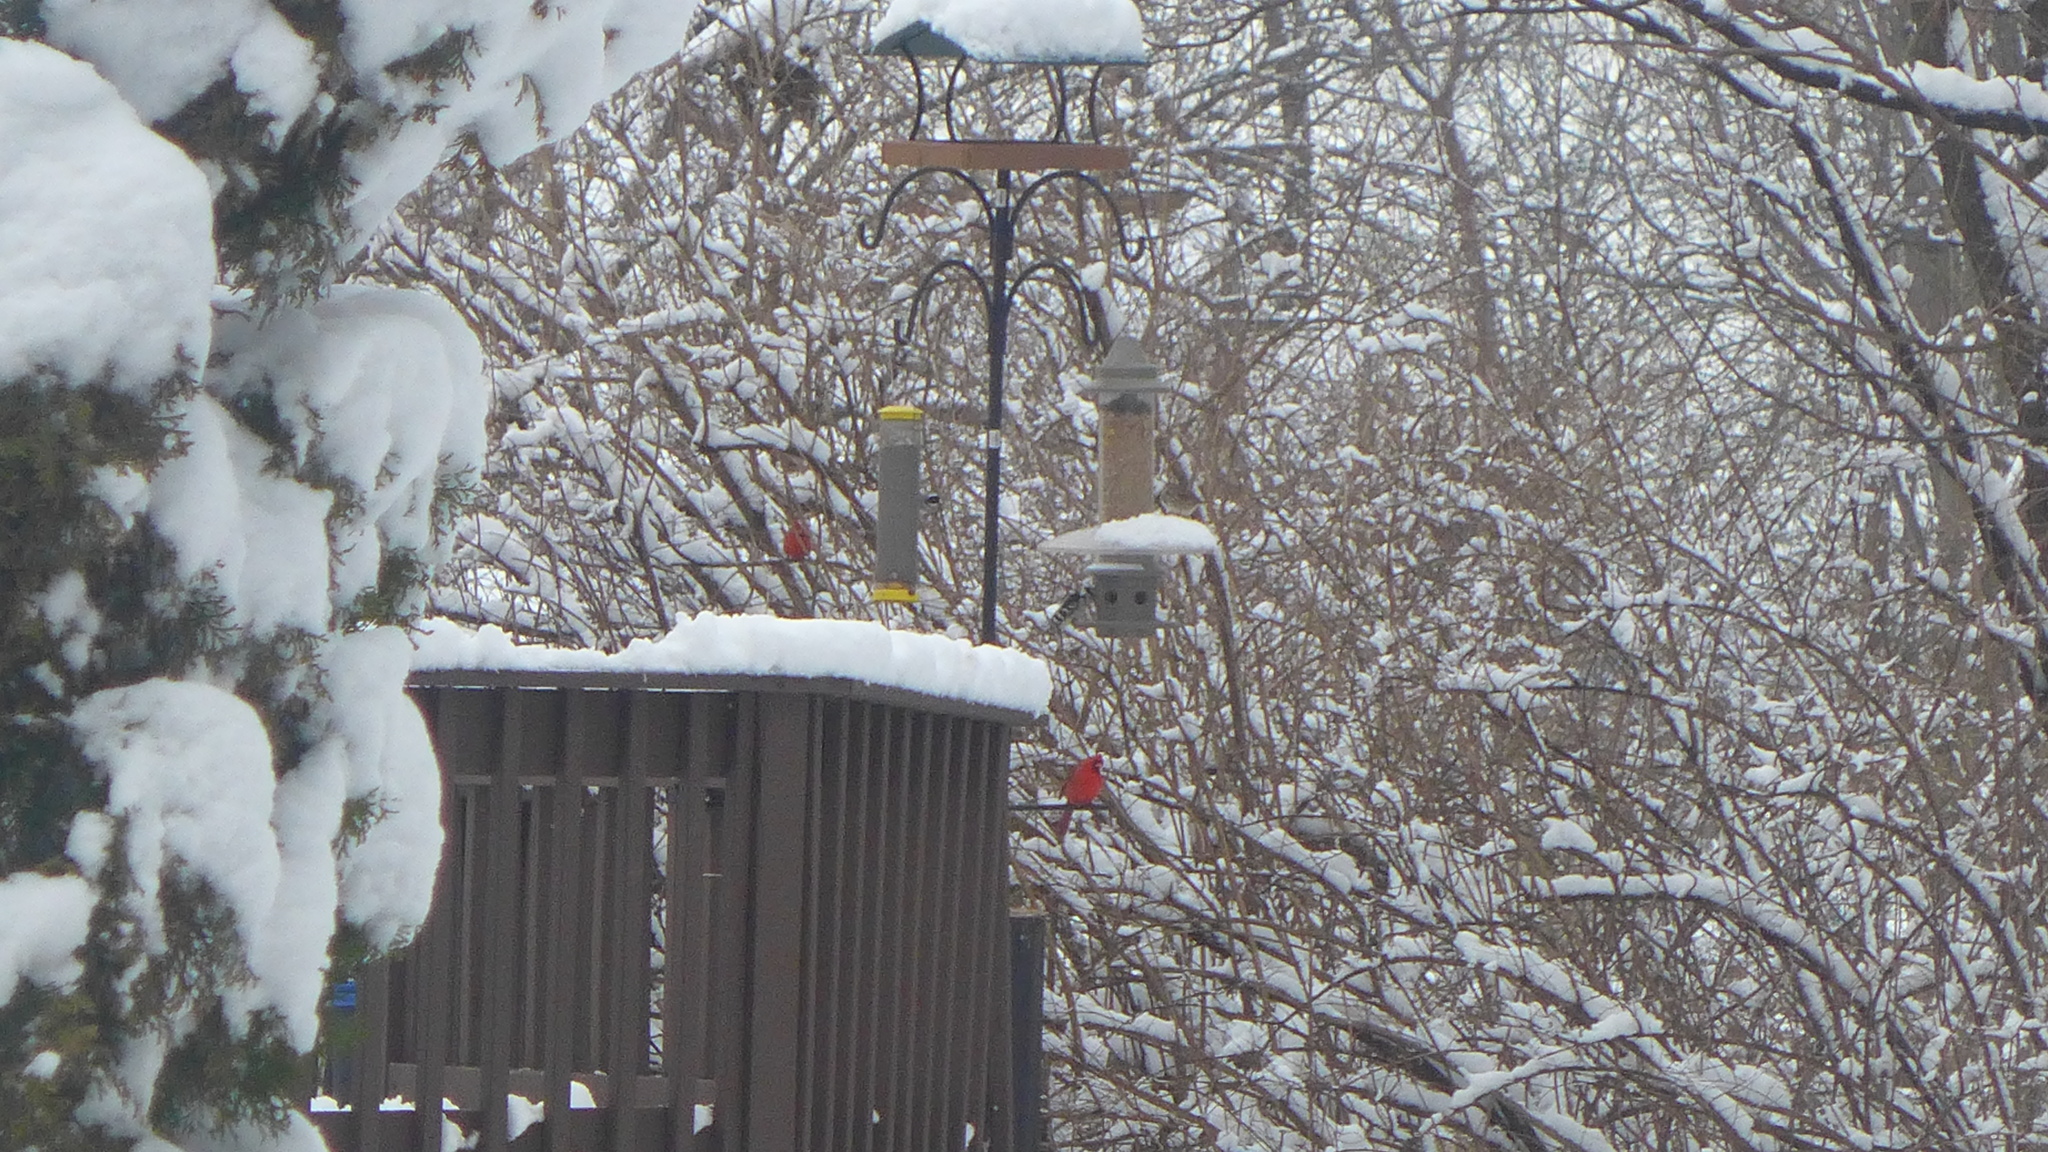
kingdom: Animalia
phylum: Chordata
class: Aves
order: Passeriformes
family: Cardinalidae
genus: Cardinalis
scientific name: Cardinalis cardinalis
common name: Northern cardinal
